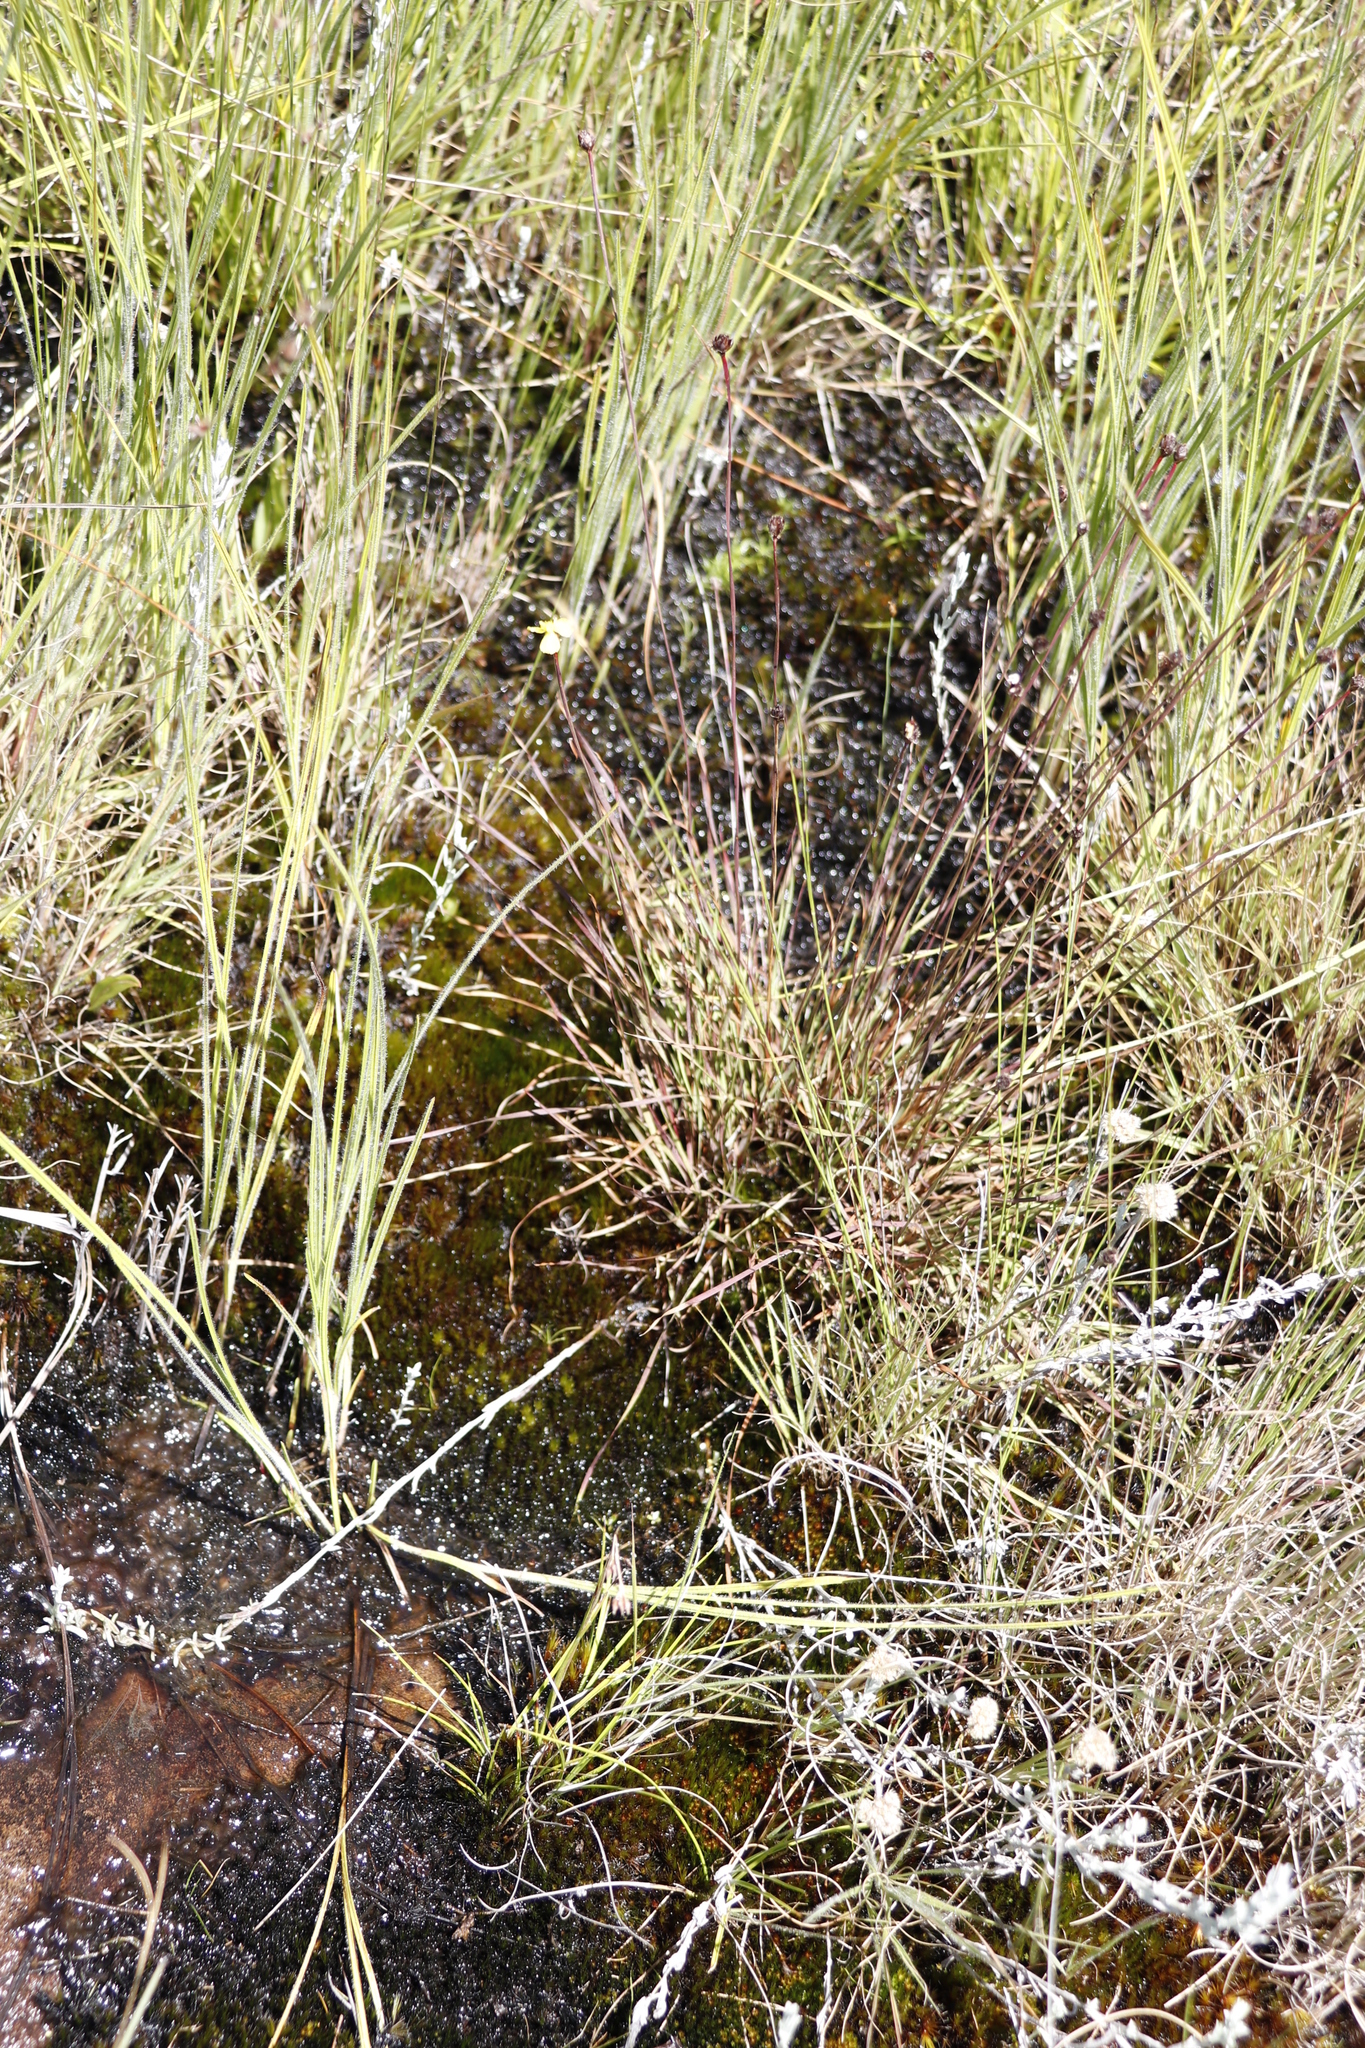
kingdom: Plantae
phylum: Tracheophyta
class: Liliopsida
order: Poales
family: Xyridaceae
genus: Xyris
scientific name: Xyris capensis
